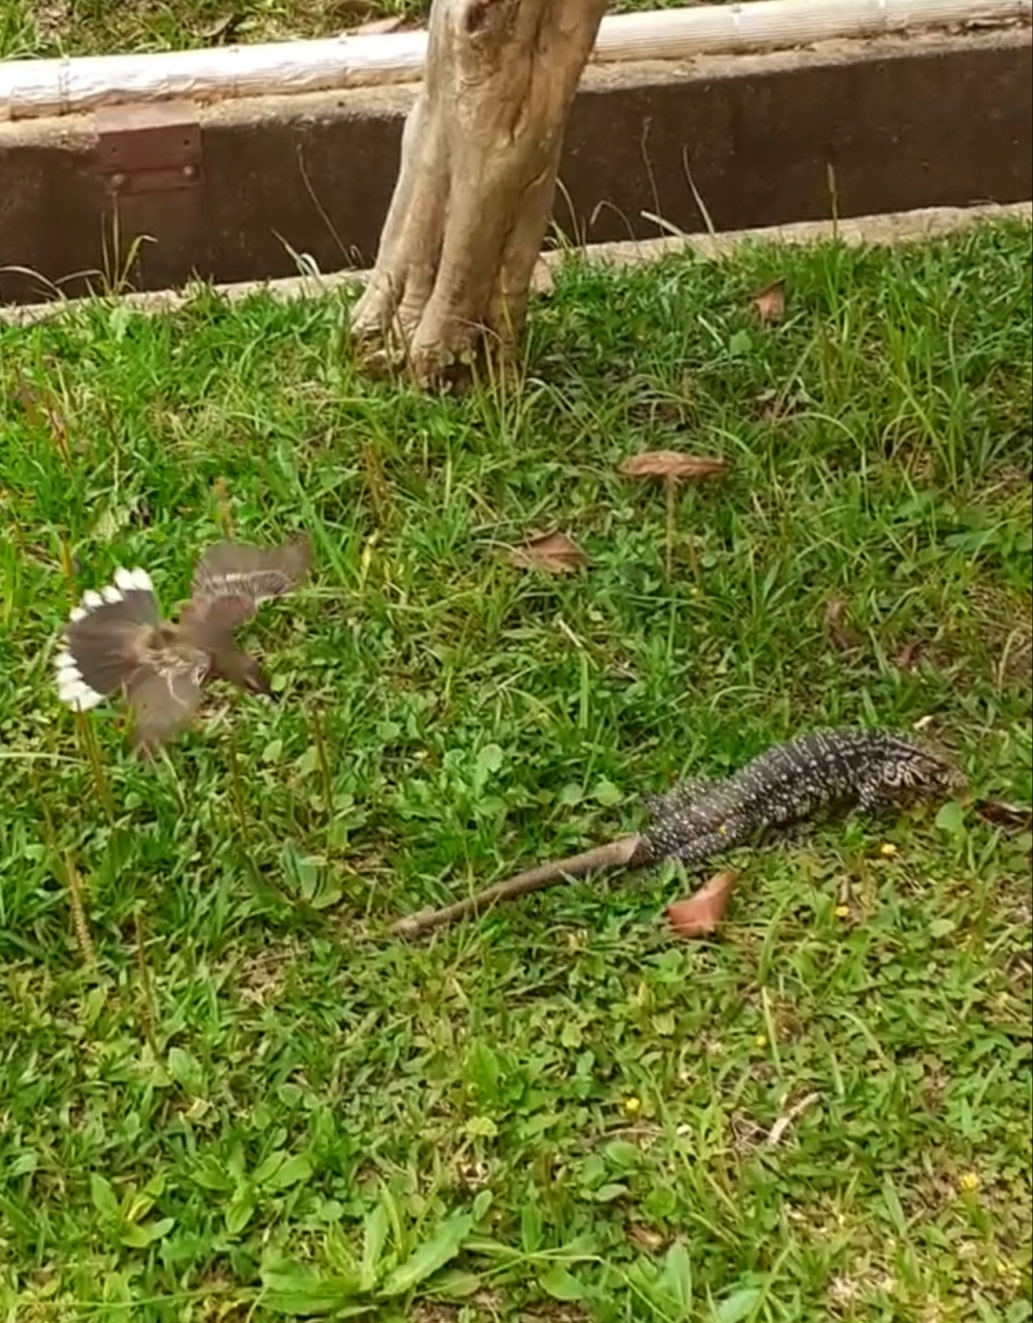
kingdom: Animalia
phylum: Chordata
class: Squamata
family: Teiidae
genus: Salvator
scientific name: Salvator merianae
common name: Argentine black and white tegu
